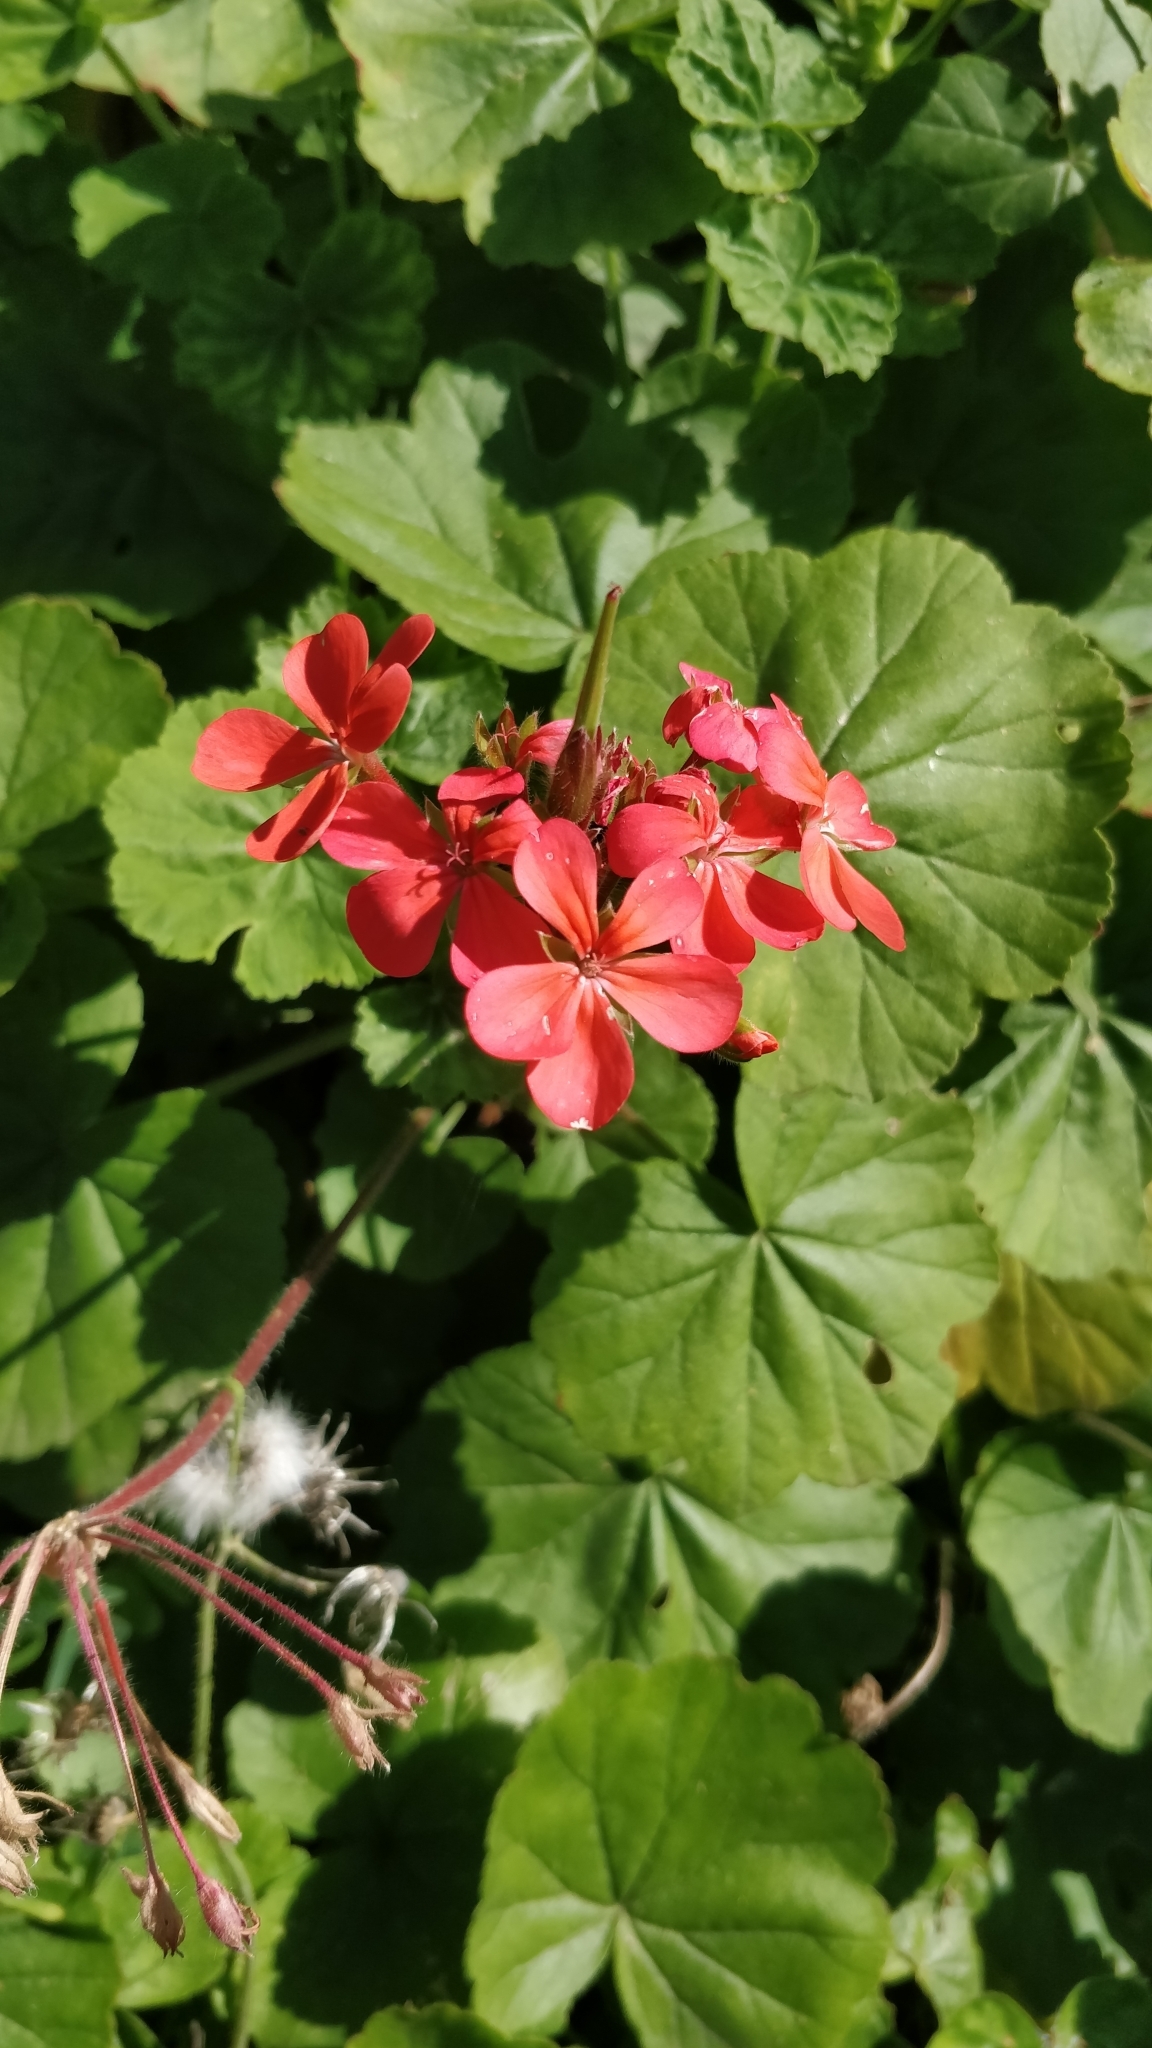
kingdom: Plantae
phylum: Tracheophyta
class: Magnoliopsida
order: Geraniales
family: Geraniaceae
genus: Pelargonium
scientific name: Pelargonium hybridum
